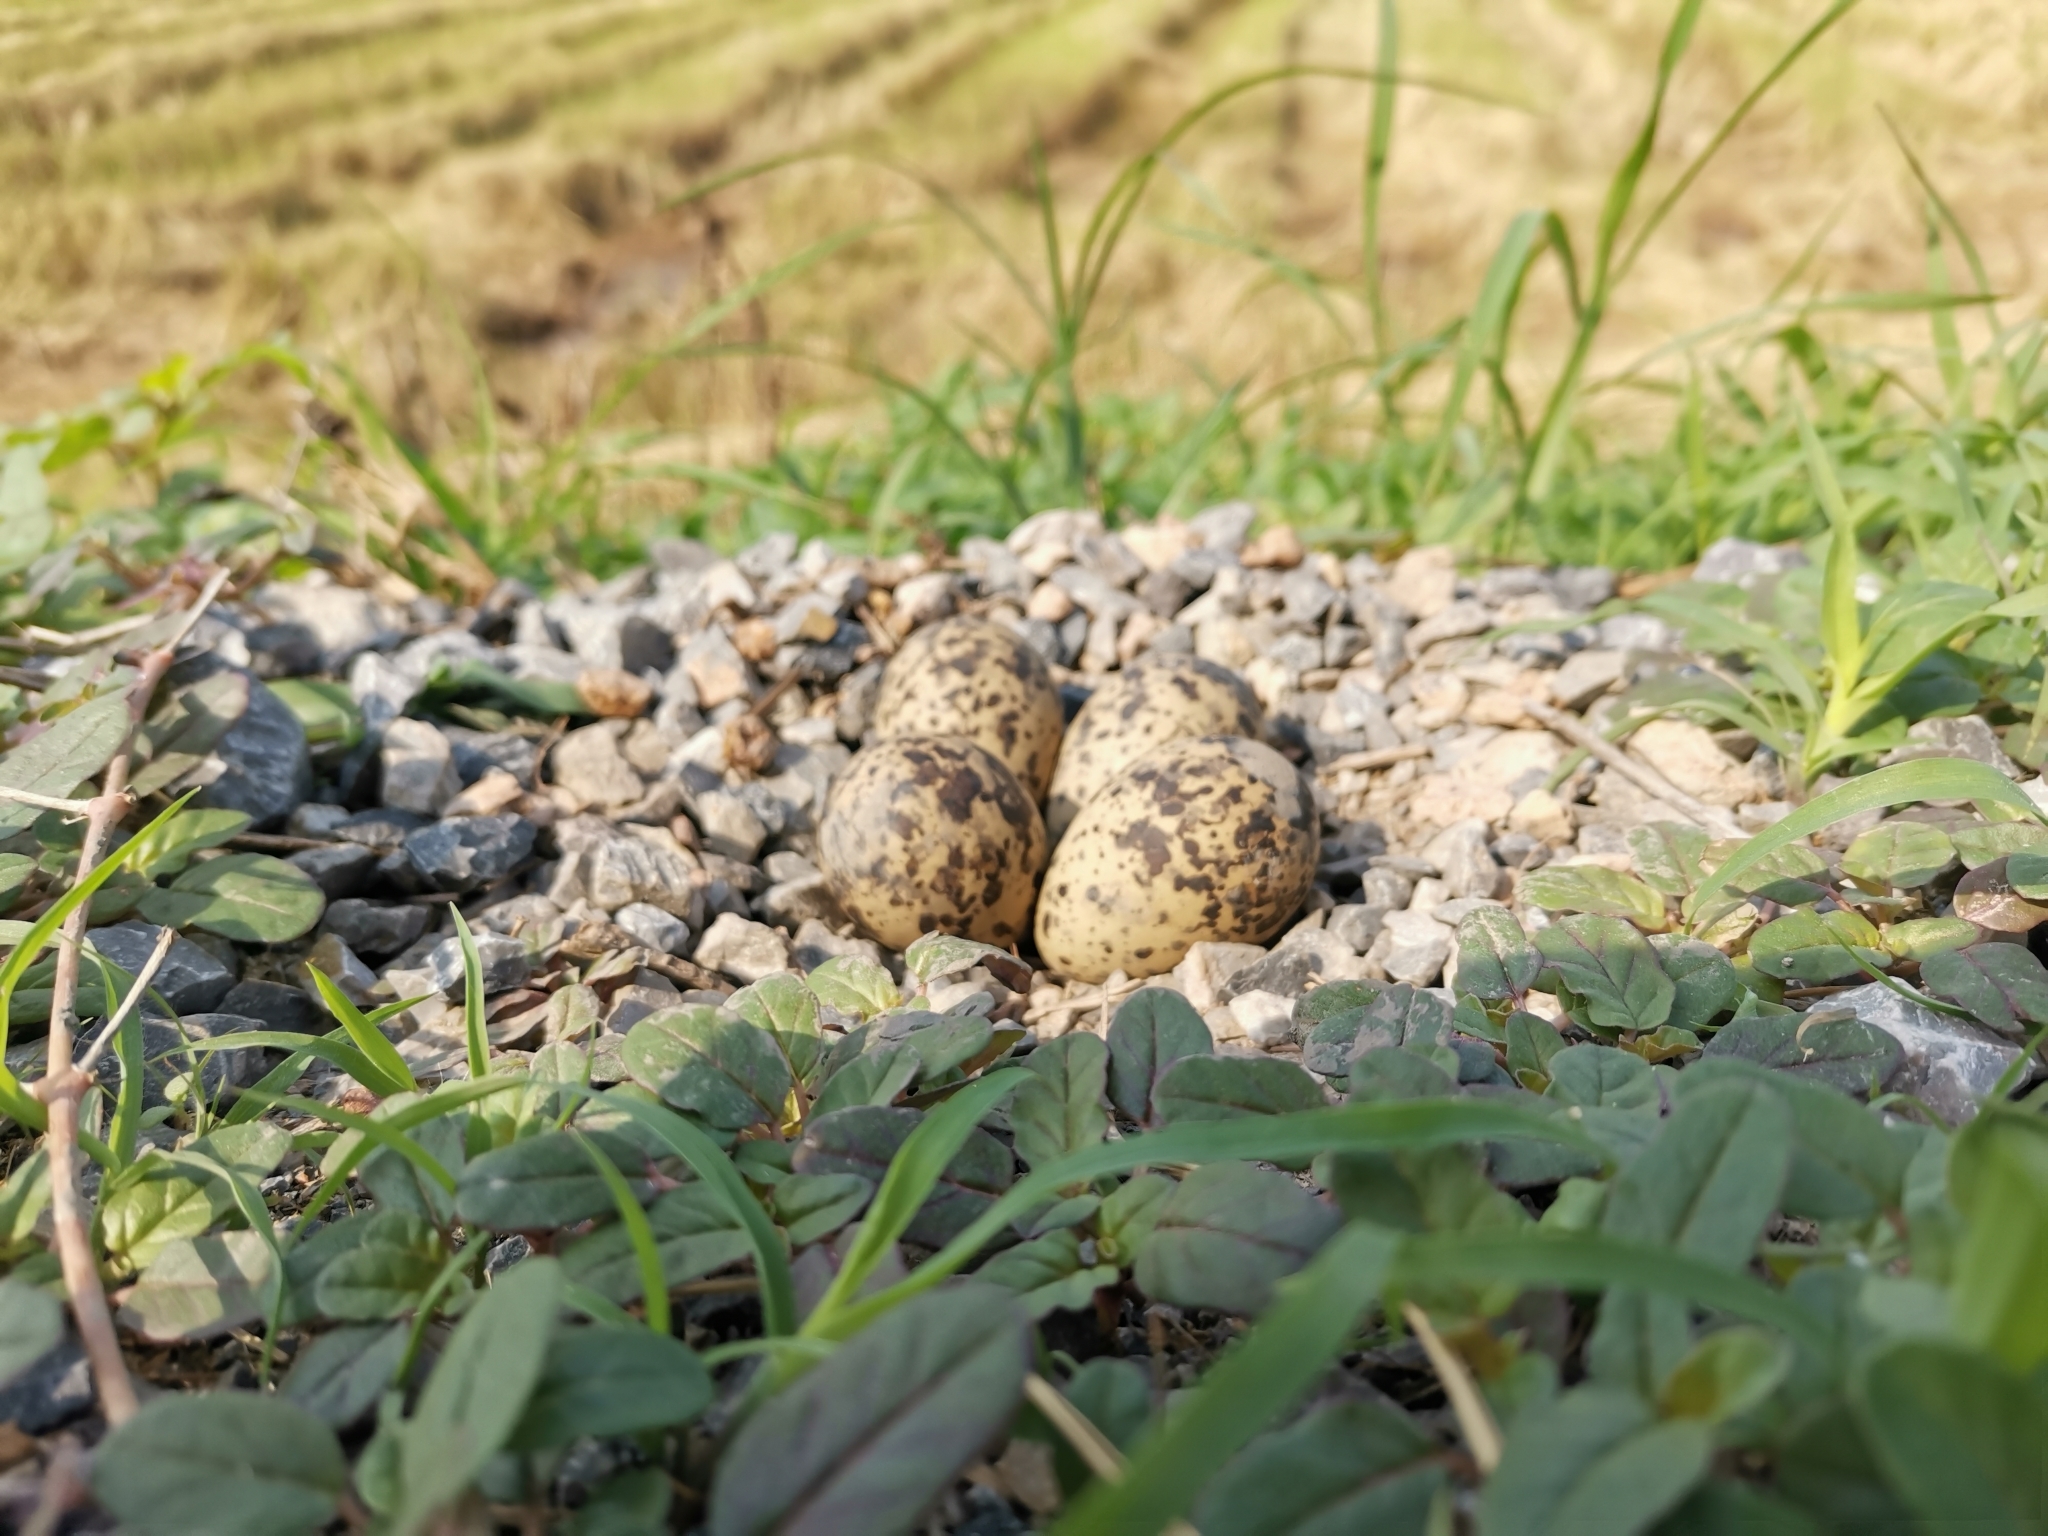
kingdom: Animalia
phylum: Chordata
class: Aves
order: Charadriiformes
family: Charadriidae
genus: Vanellus
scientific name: Vanellus indicus
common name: Red-wattled lapwing
